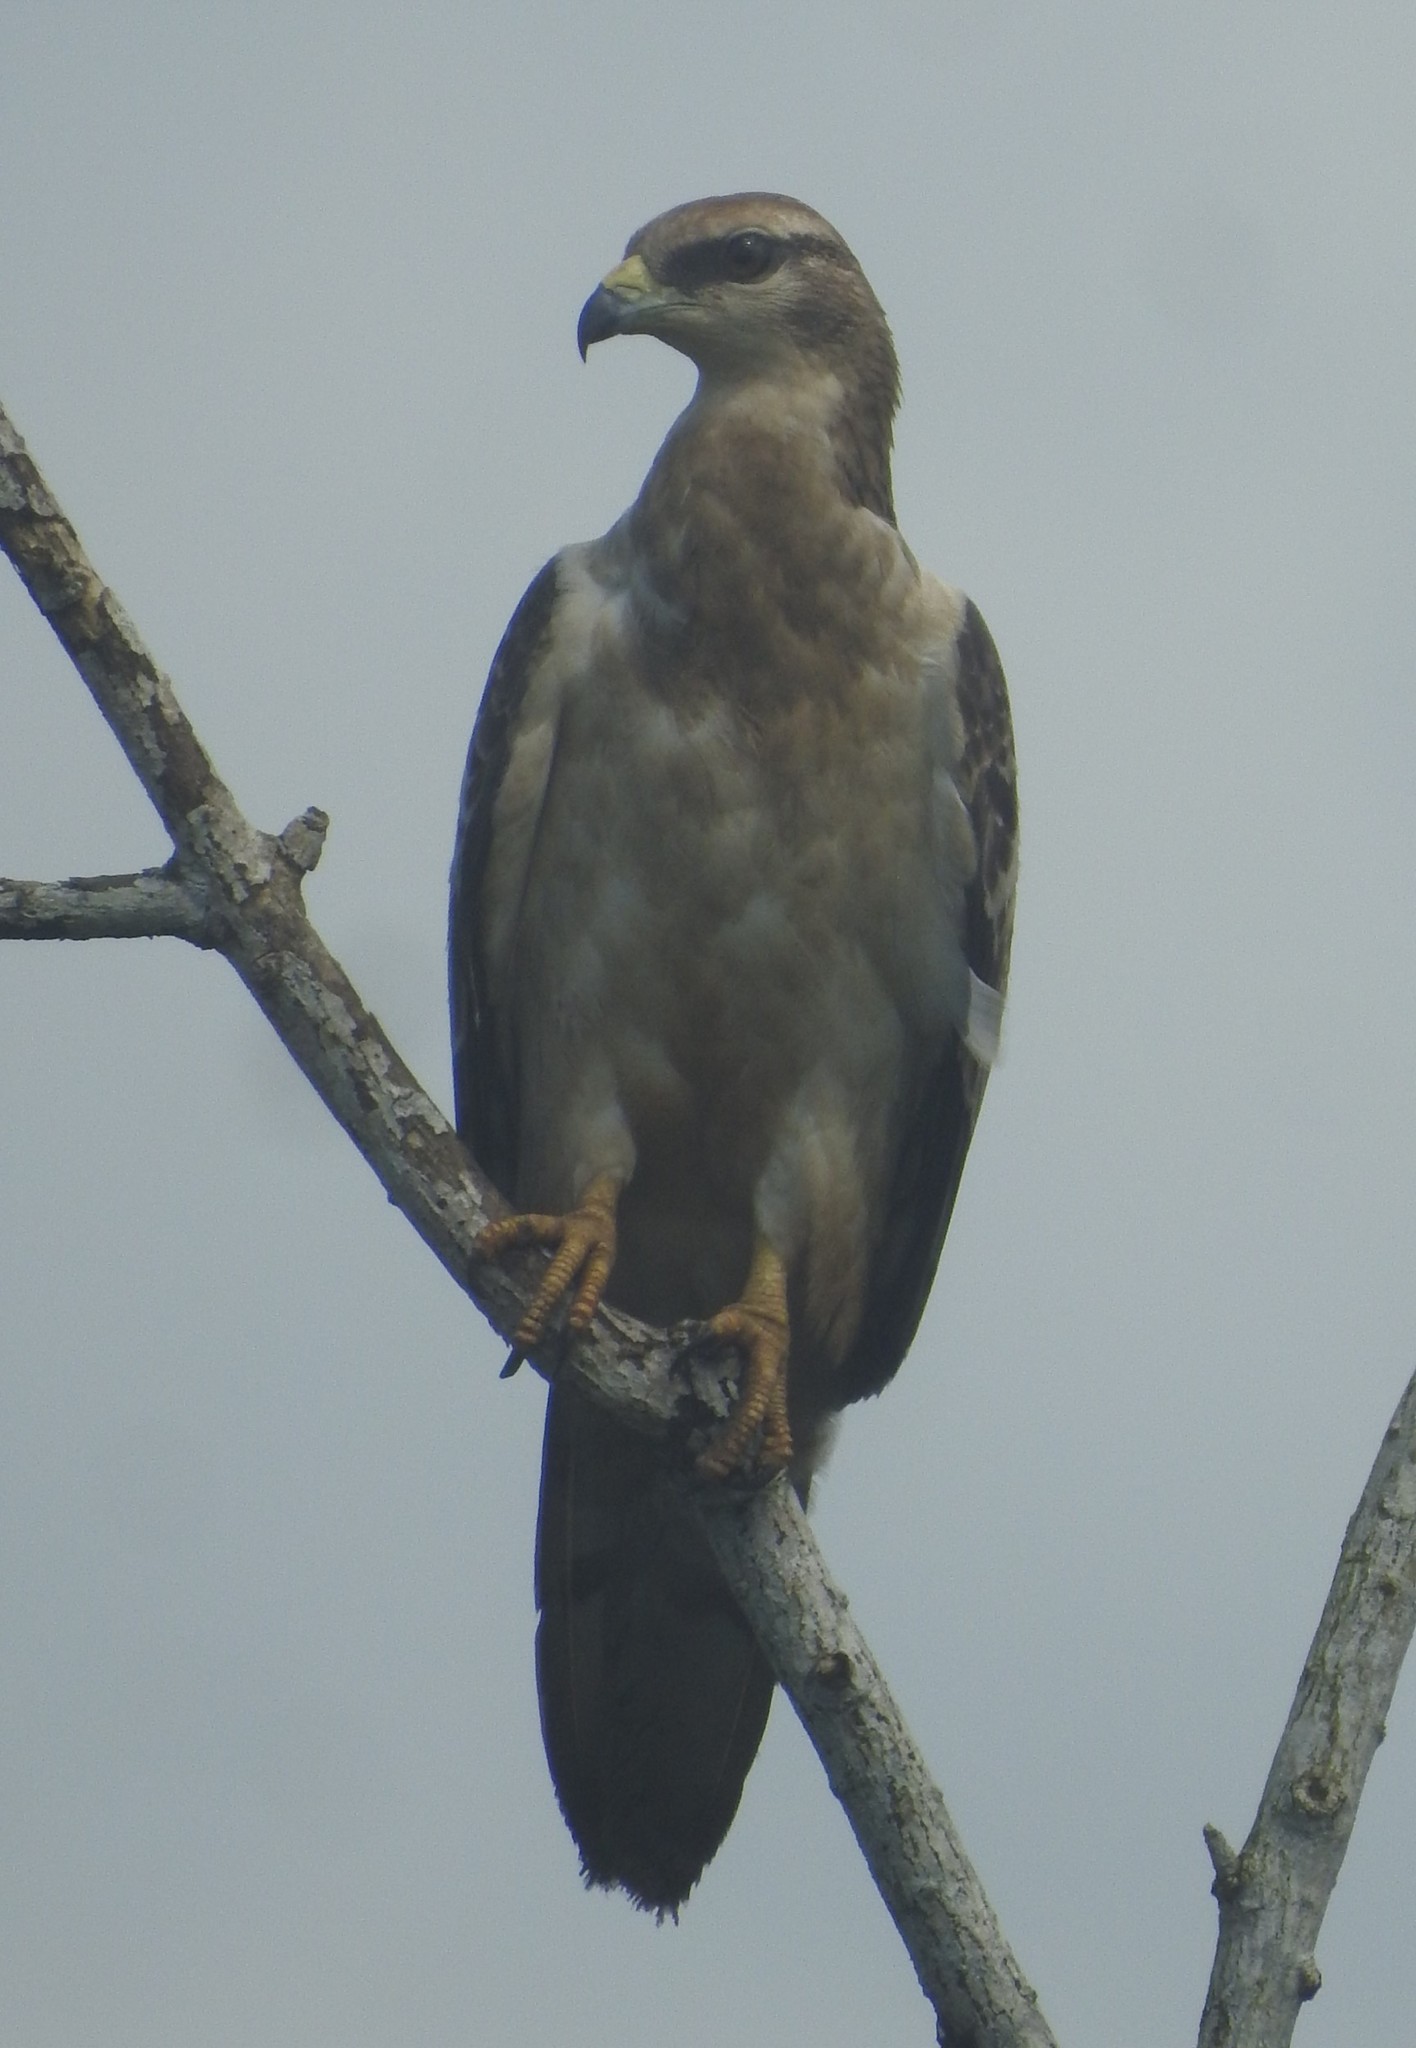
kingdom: Animalia
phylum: Chordata
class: Aves
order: Accipitriformes
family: Accipitridae
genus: Pernis
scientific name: Pernis ptilorhynchus
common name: Crested honey buzzard
